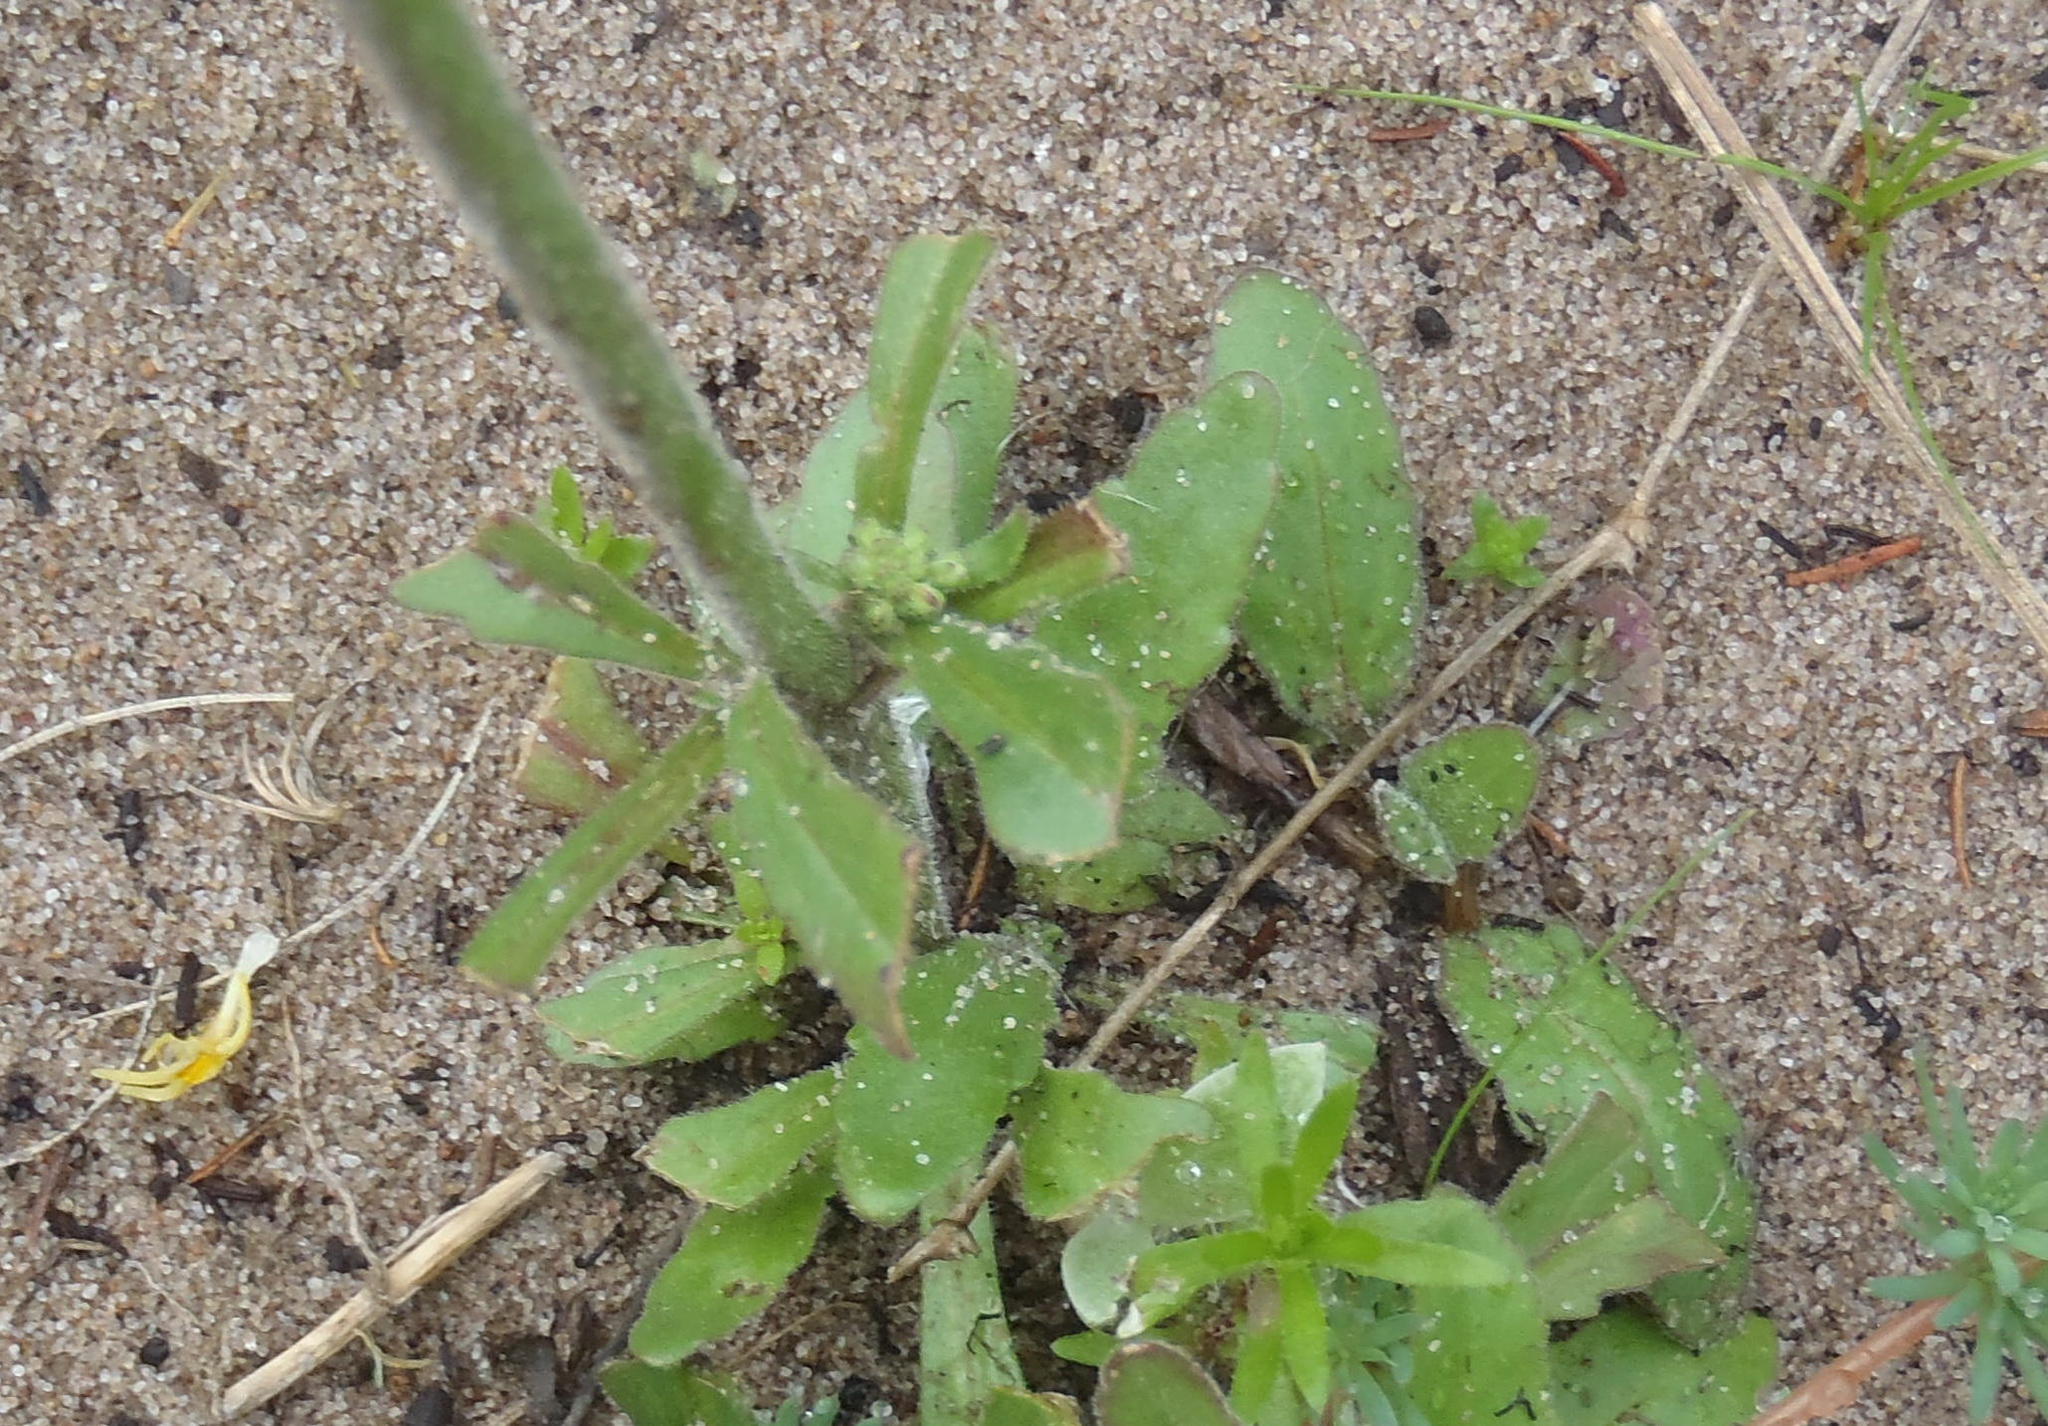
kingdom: Plantae
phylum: Tracheophyta
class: Magnoliopsida
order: Lamiales
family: Scrophulariaceae
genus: Manulea
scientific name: Manulea cheiranthus
